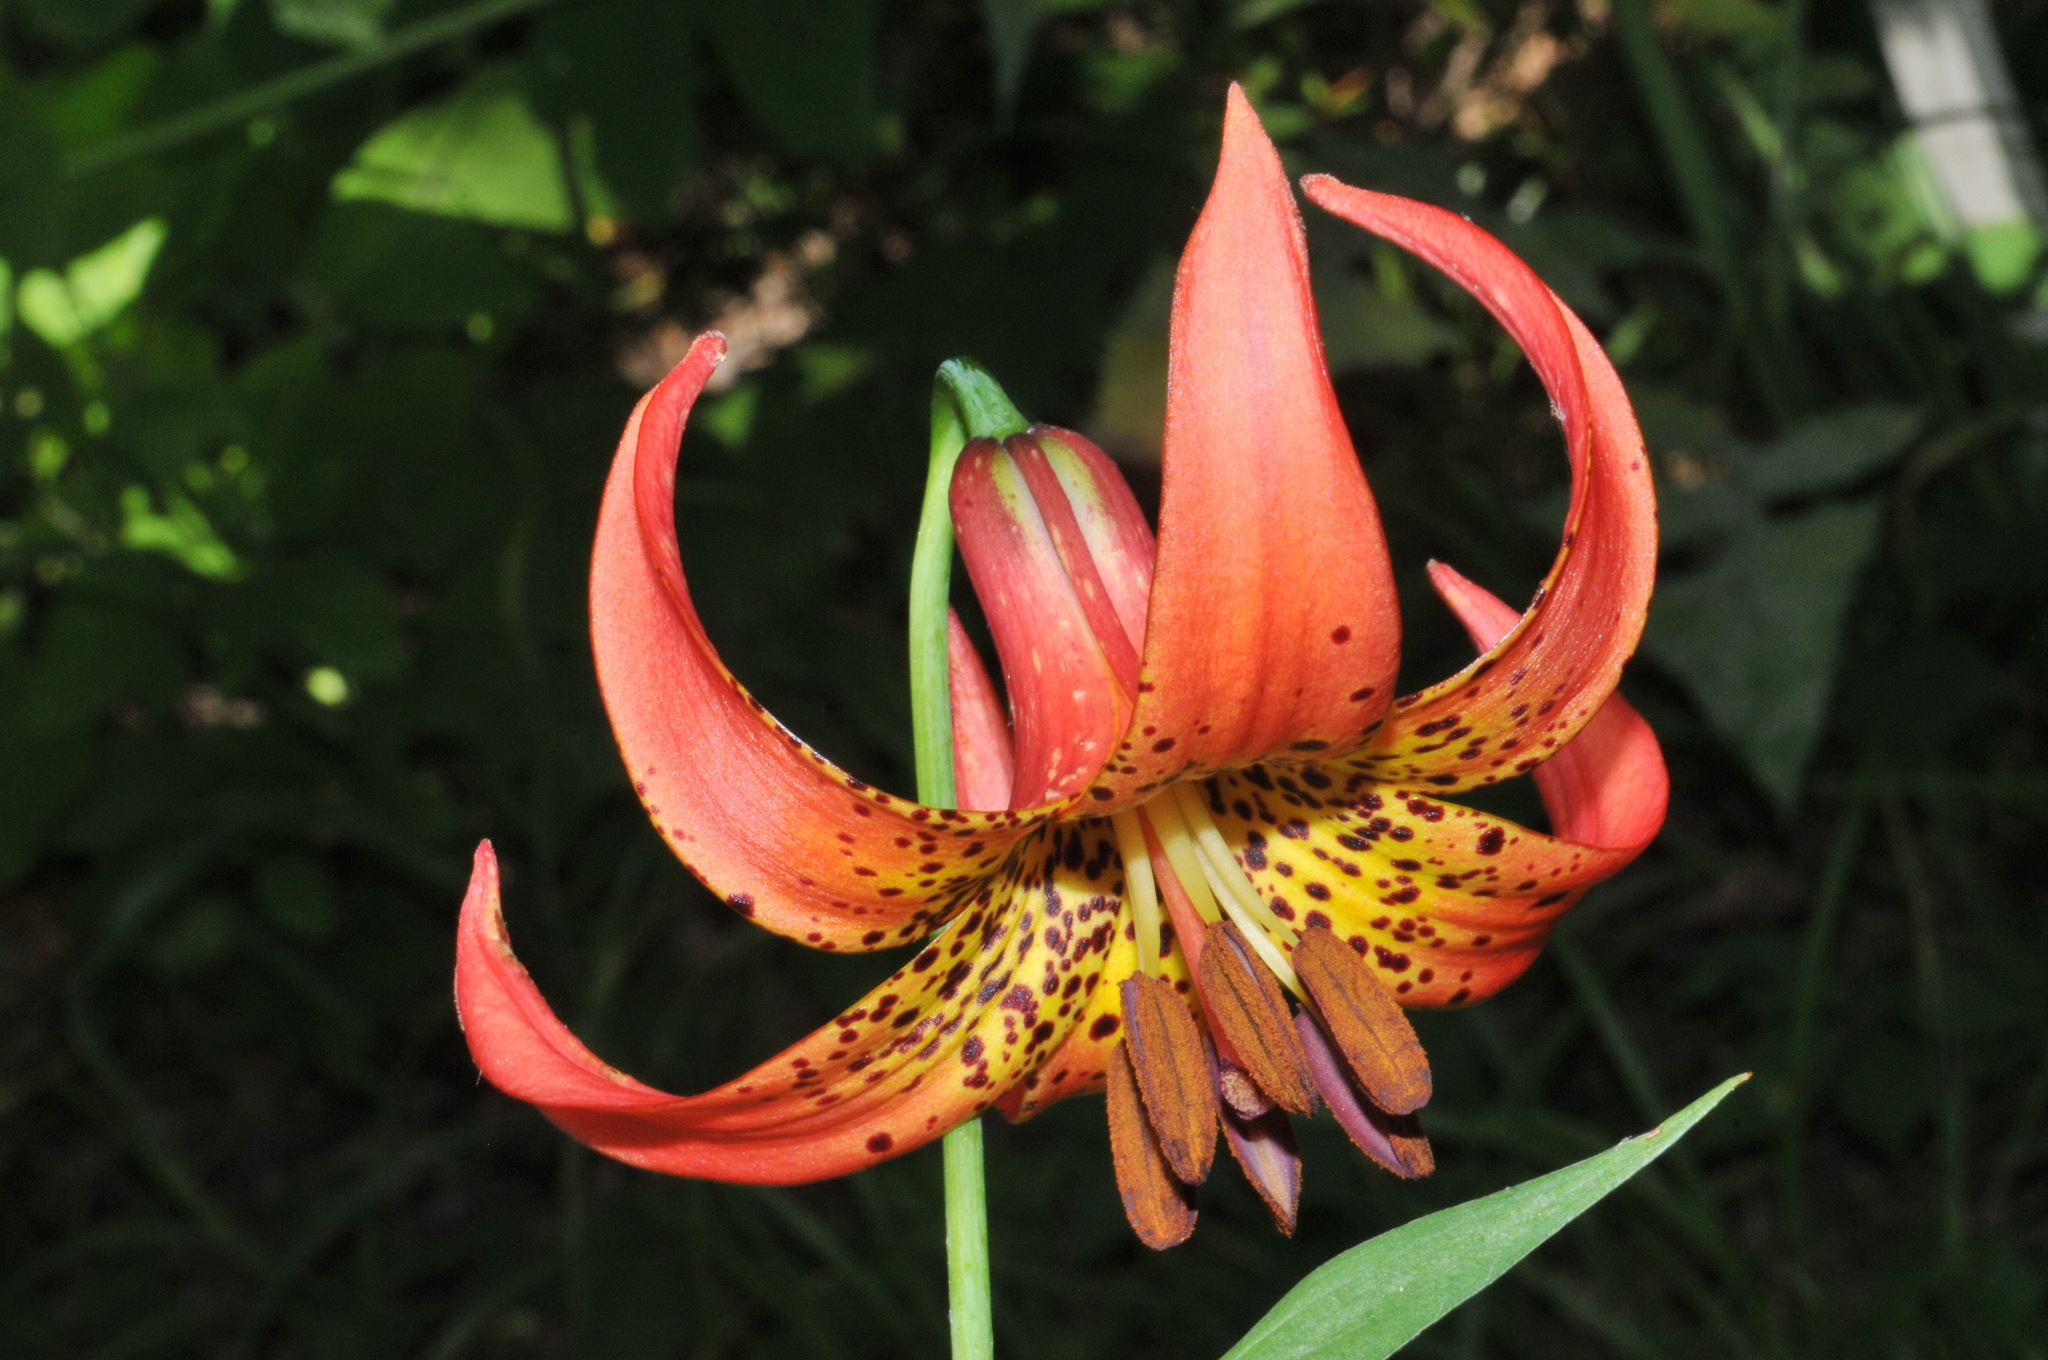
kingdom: Plantae
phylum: Tracheophyta
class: Liliopsida
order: Liliales
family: Liliaceae
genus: Lilium
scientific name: Lilium michiganense
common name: Michigan lily
